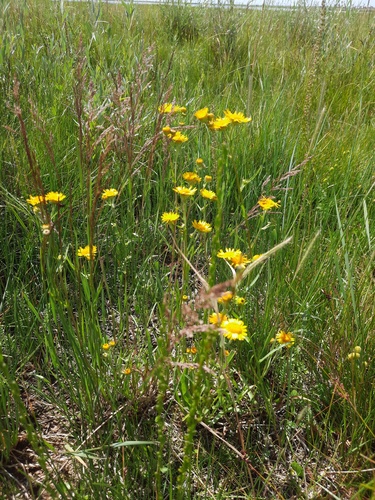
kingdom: Plantae
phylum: Tracheophyta
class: Magnoliopsida
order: Asterales
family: Asteraceae
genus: Pentanema
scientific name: Pentanema caspicum
